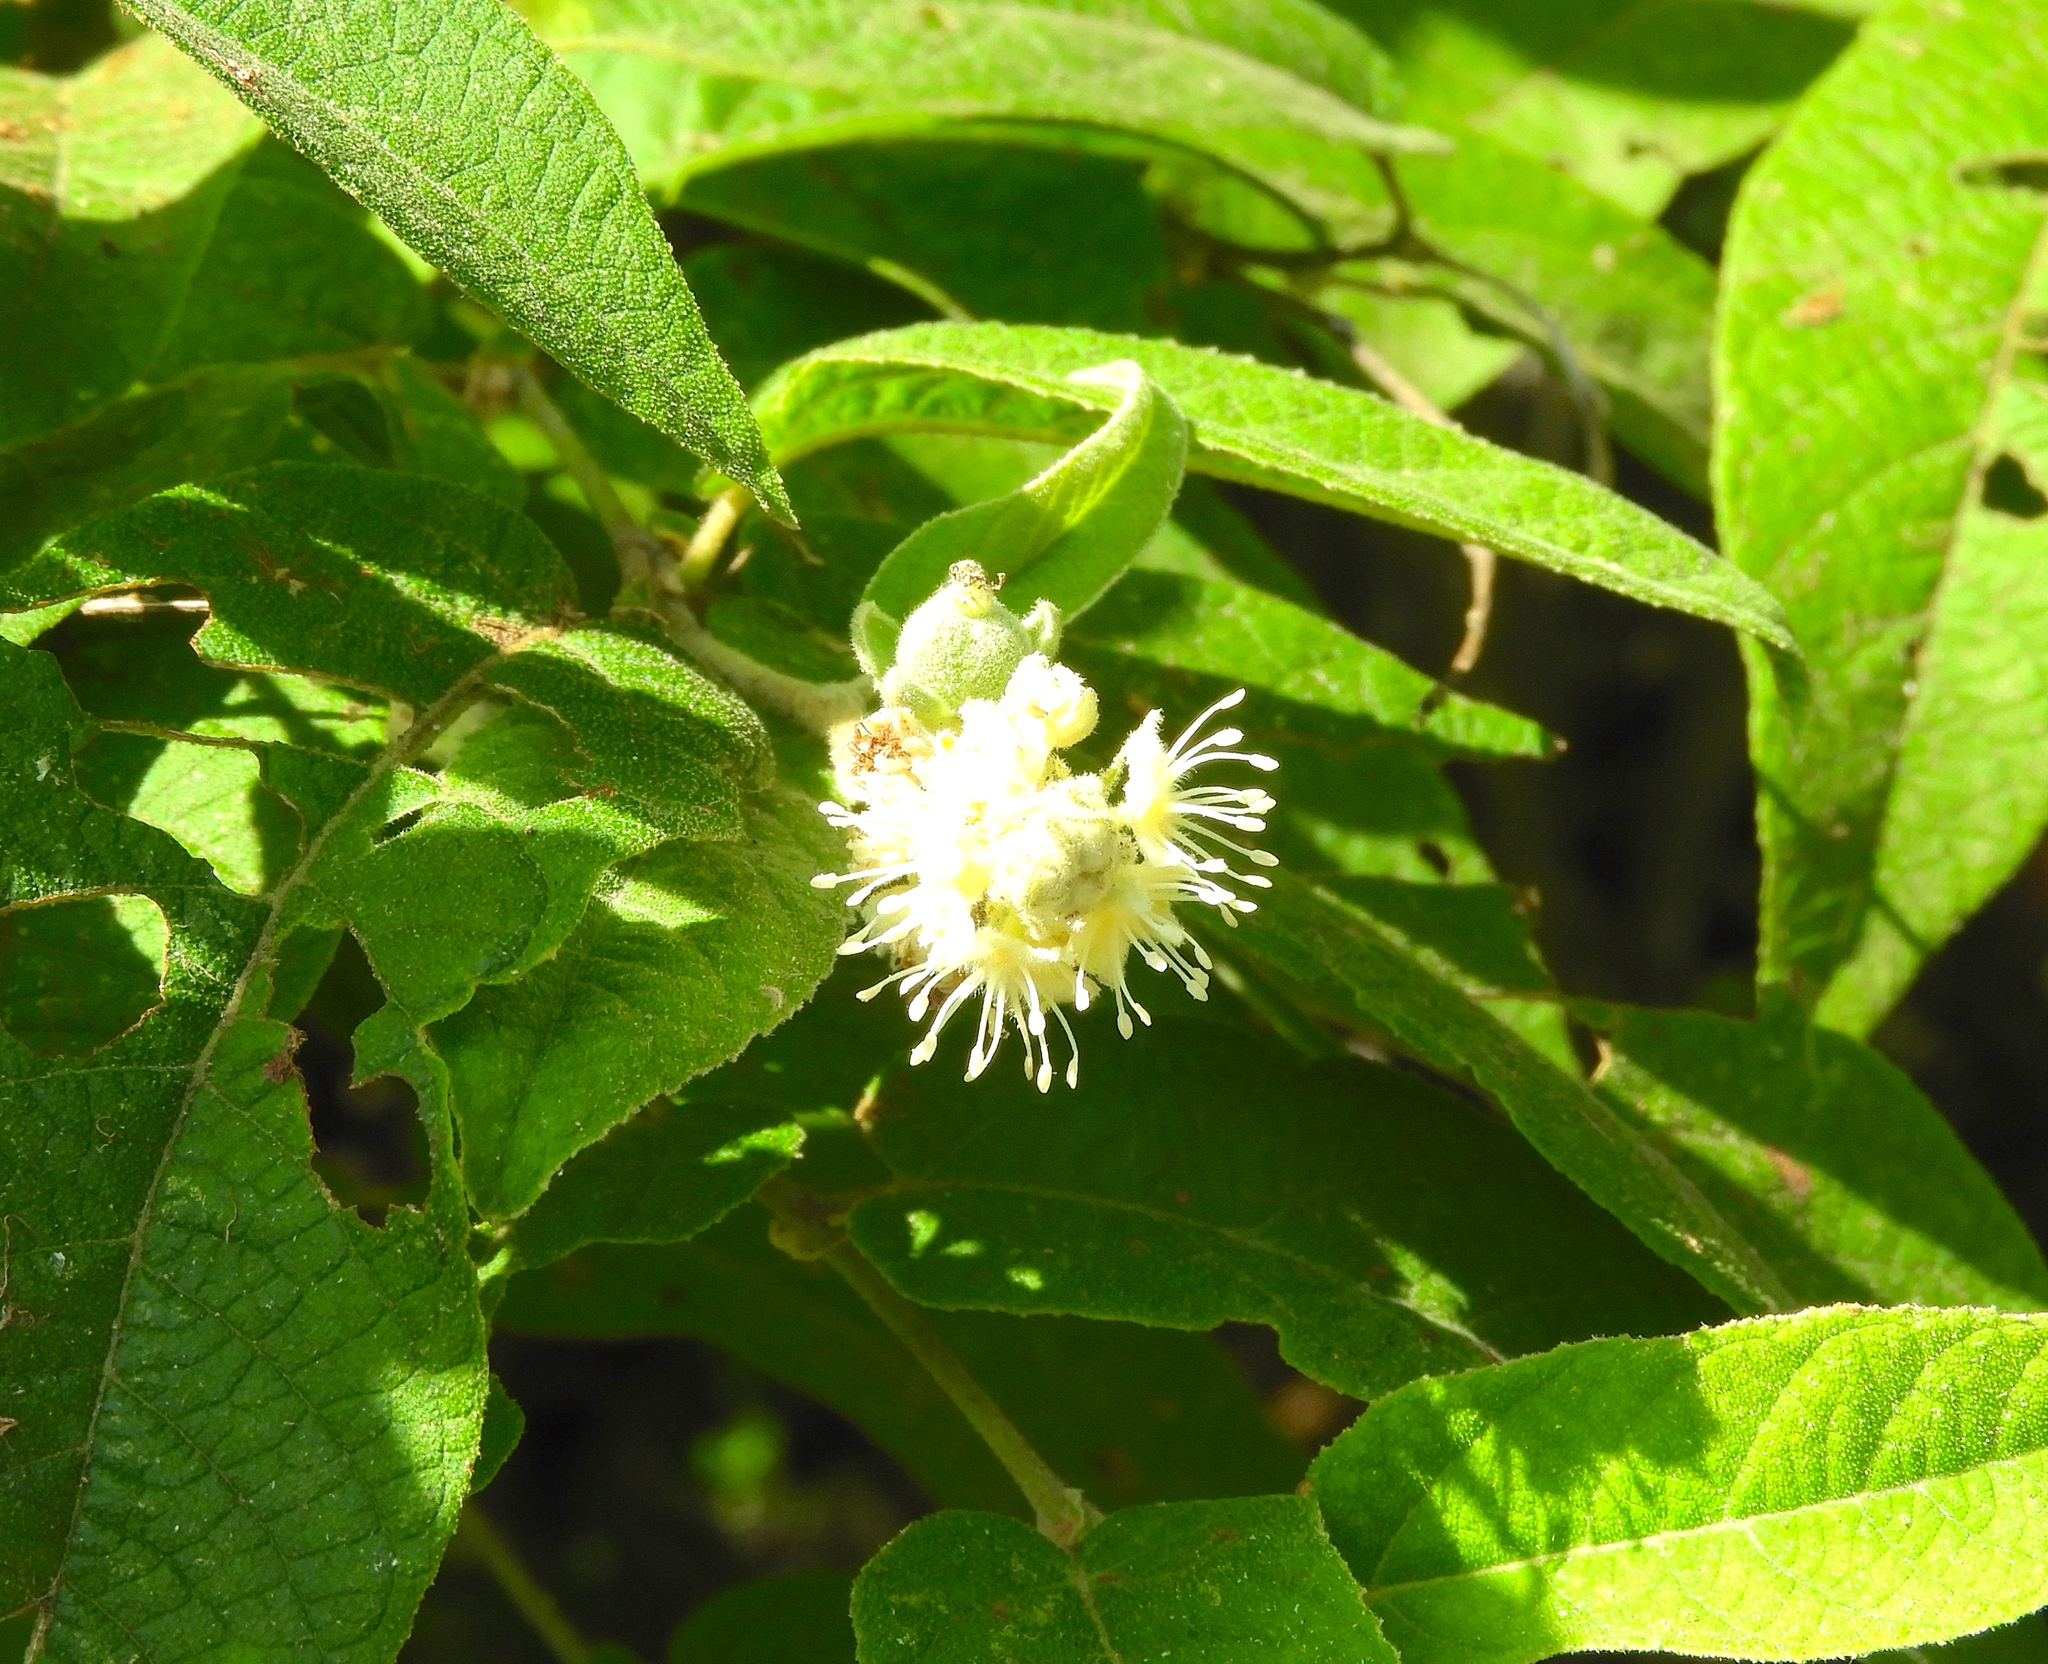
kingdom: Plantae
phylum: Tracheophyta
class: Magnoliopsida
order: Malpighiales
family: Euphorbiaceae
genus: Croton
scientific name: Croton alamosanus
